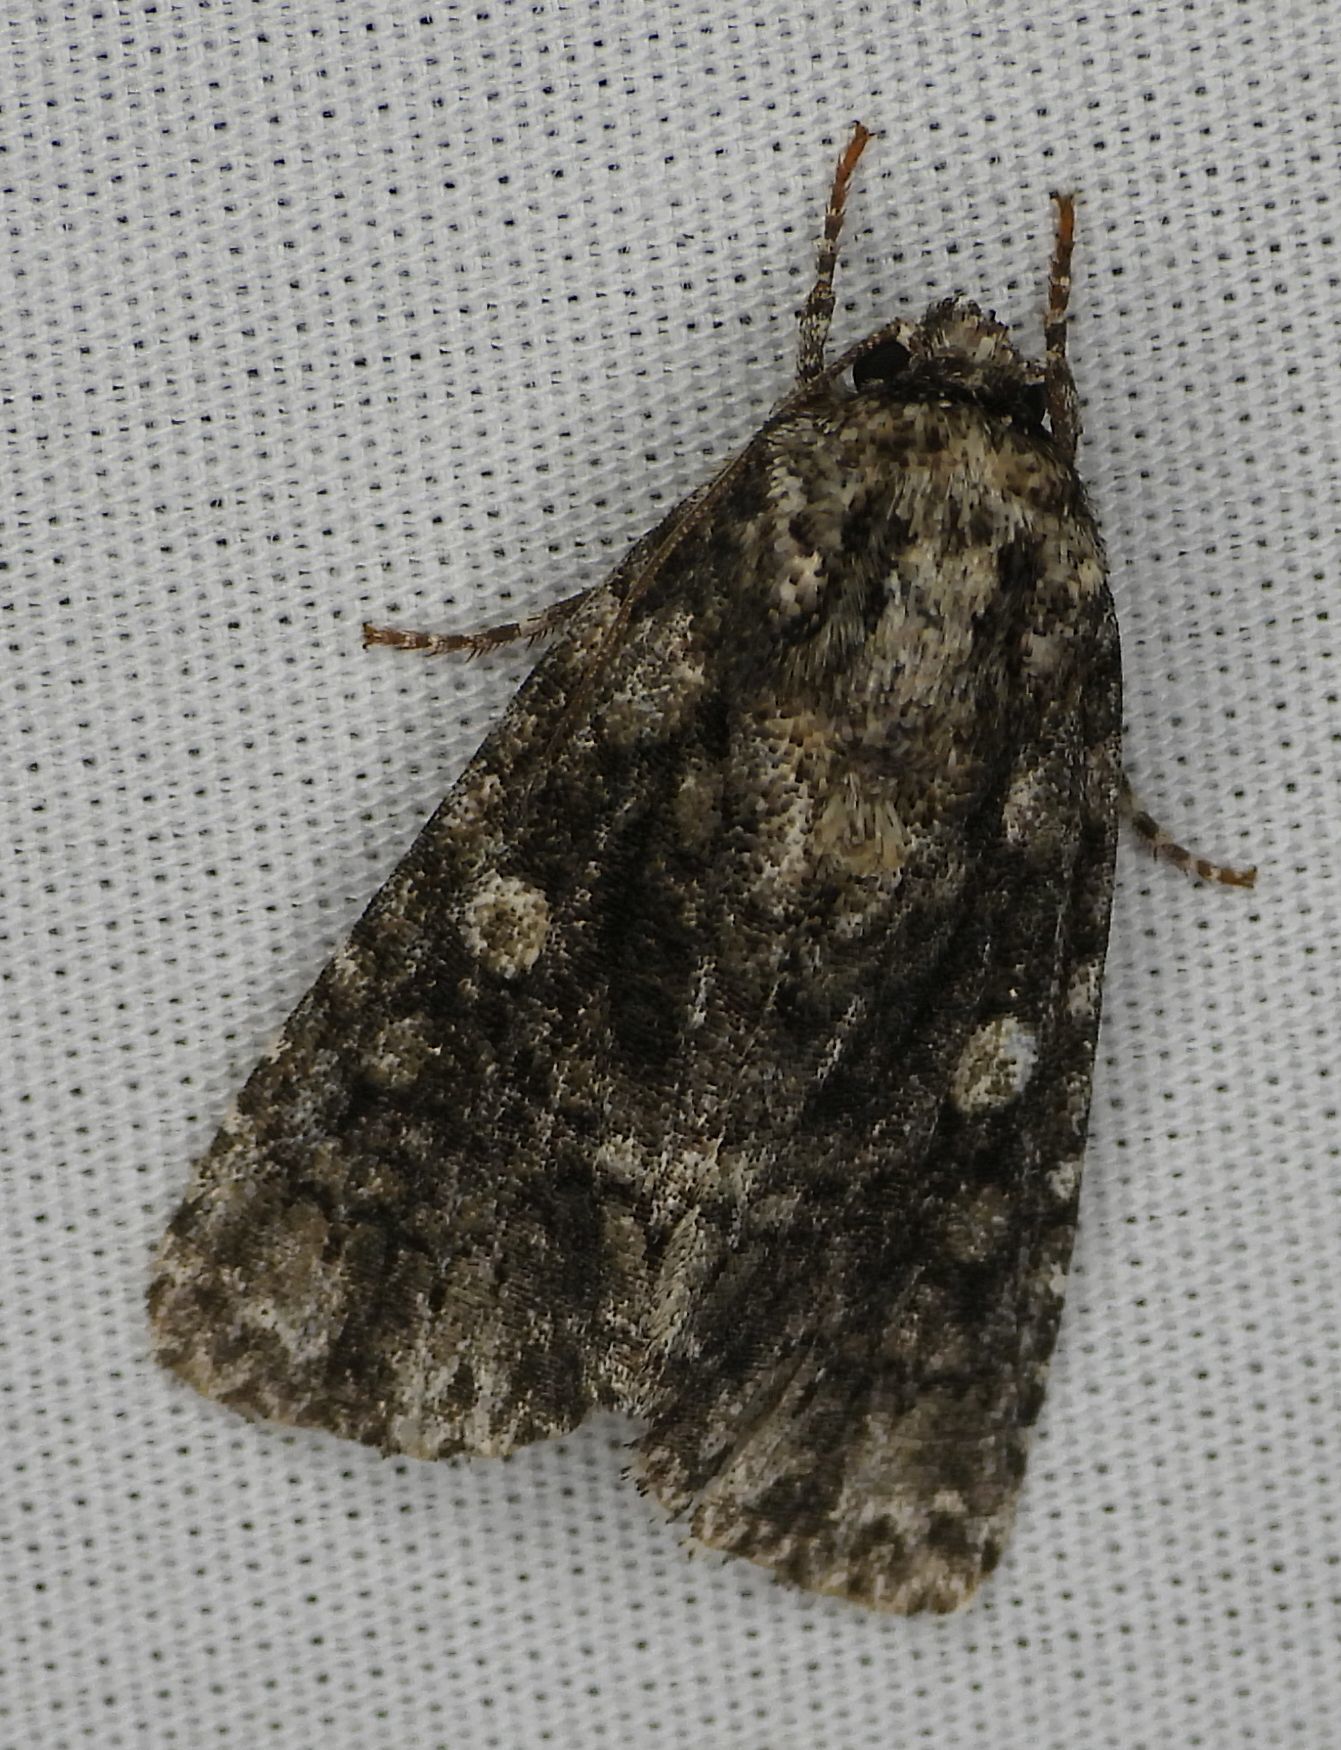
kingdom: Animalia
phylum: Arthropoda
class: Insecta
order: Lepidoptera
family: Noctuidae
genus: Acronicta
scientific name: Acronicta afflicta
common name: Afflicted dagger moth
